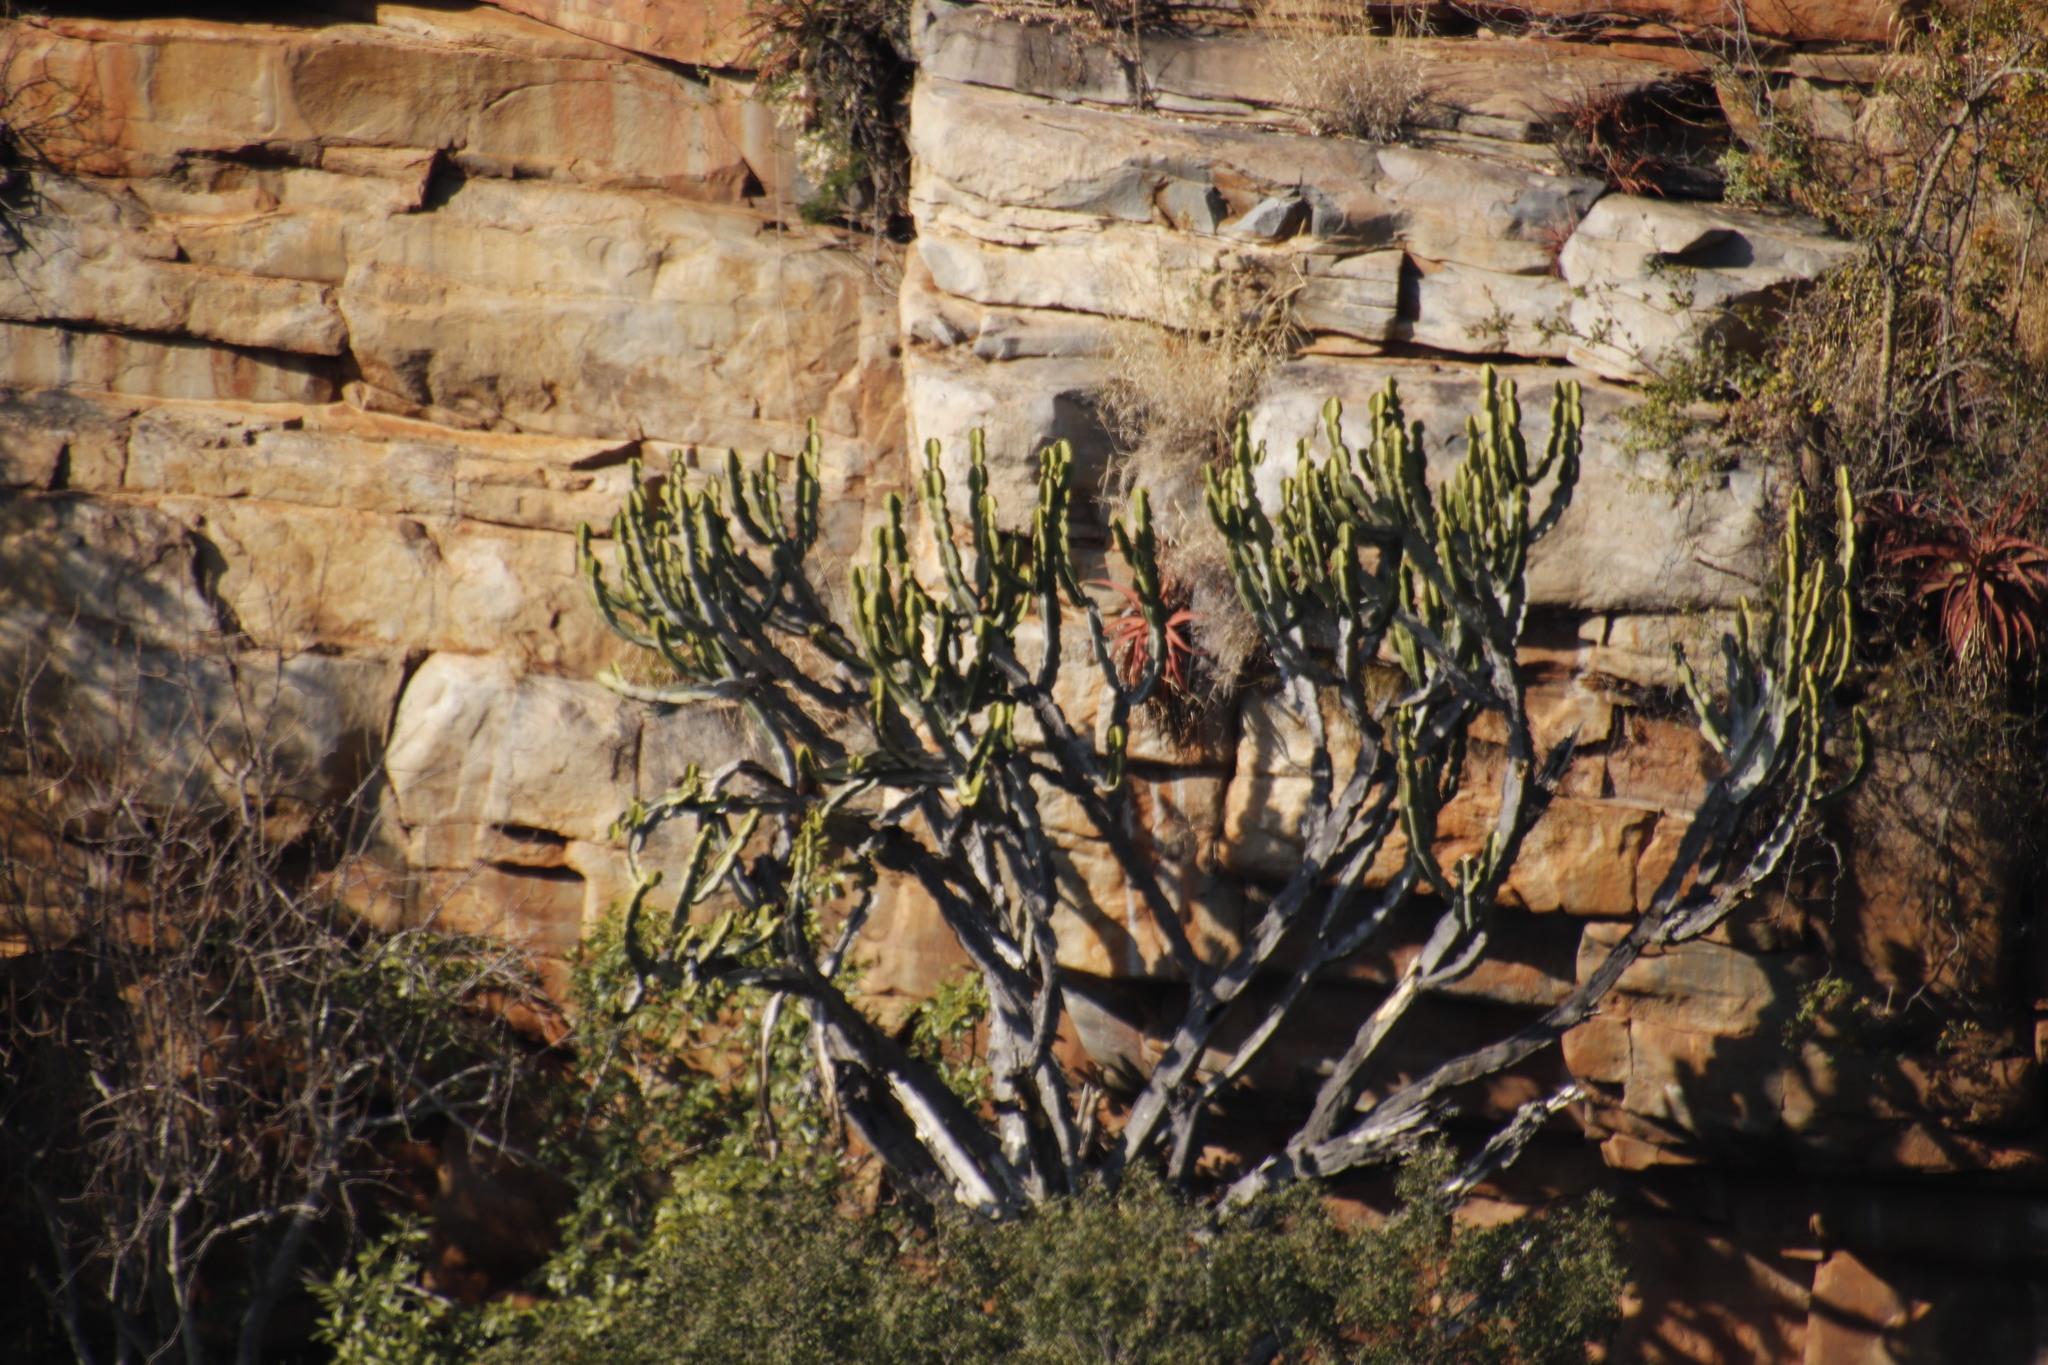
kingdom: Plantae
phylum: Tracheophyta
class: Magnoliopsida
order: Malpighiales
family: Euphorbiaceae
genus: Euphorbia
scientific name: Euphorbia ingens
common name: Cactus spurge
